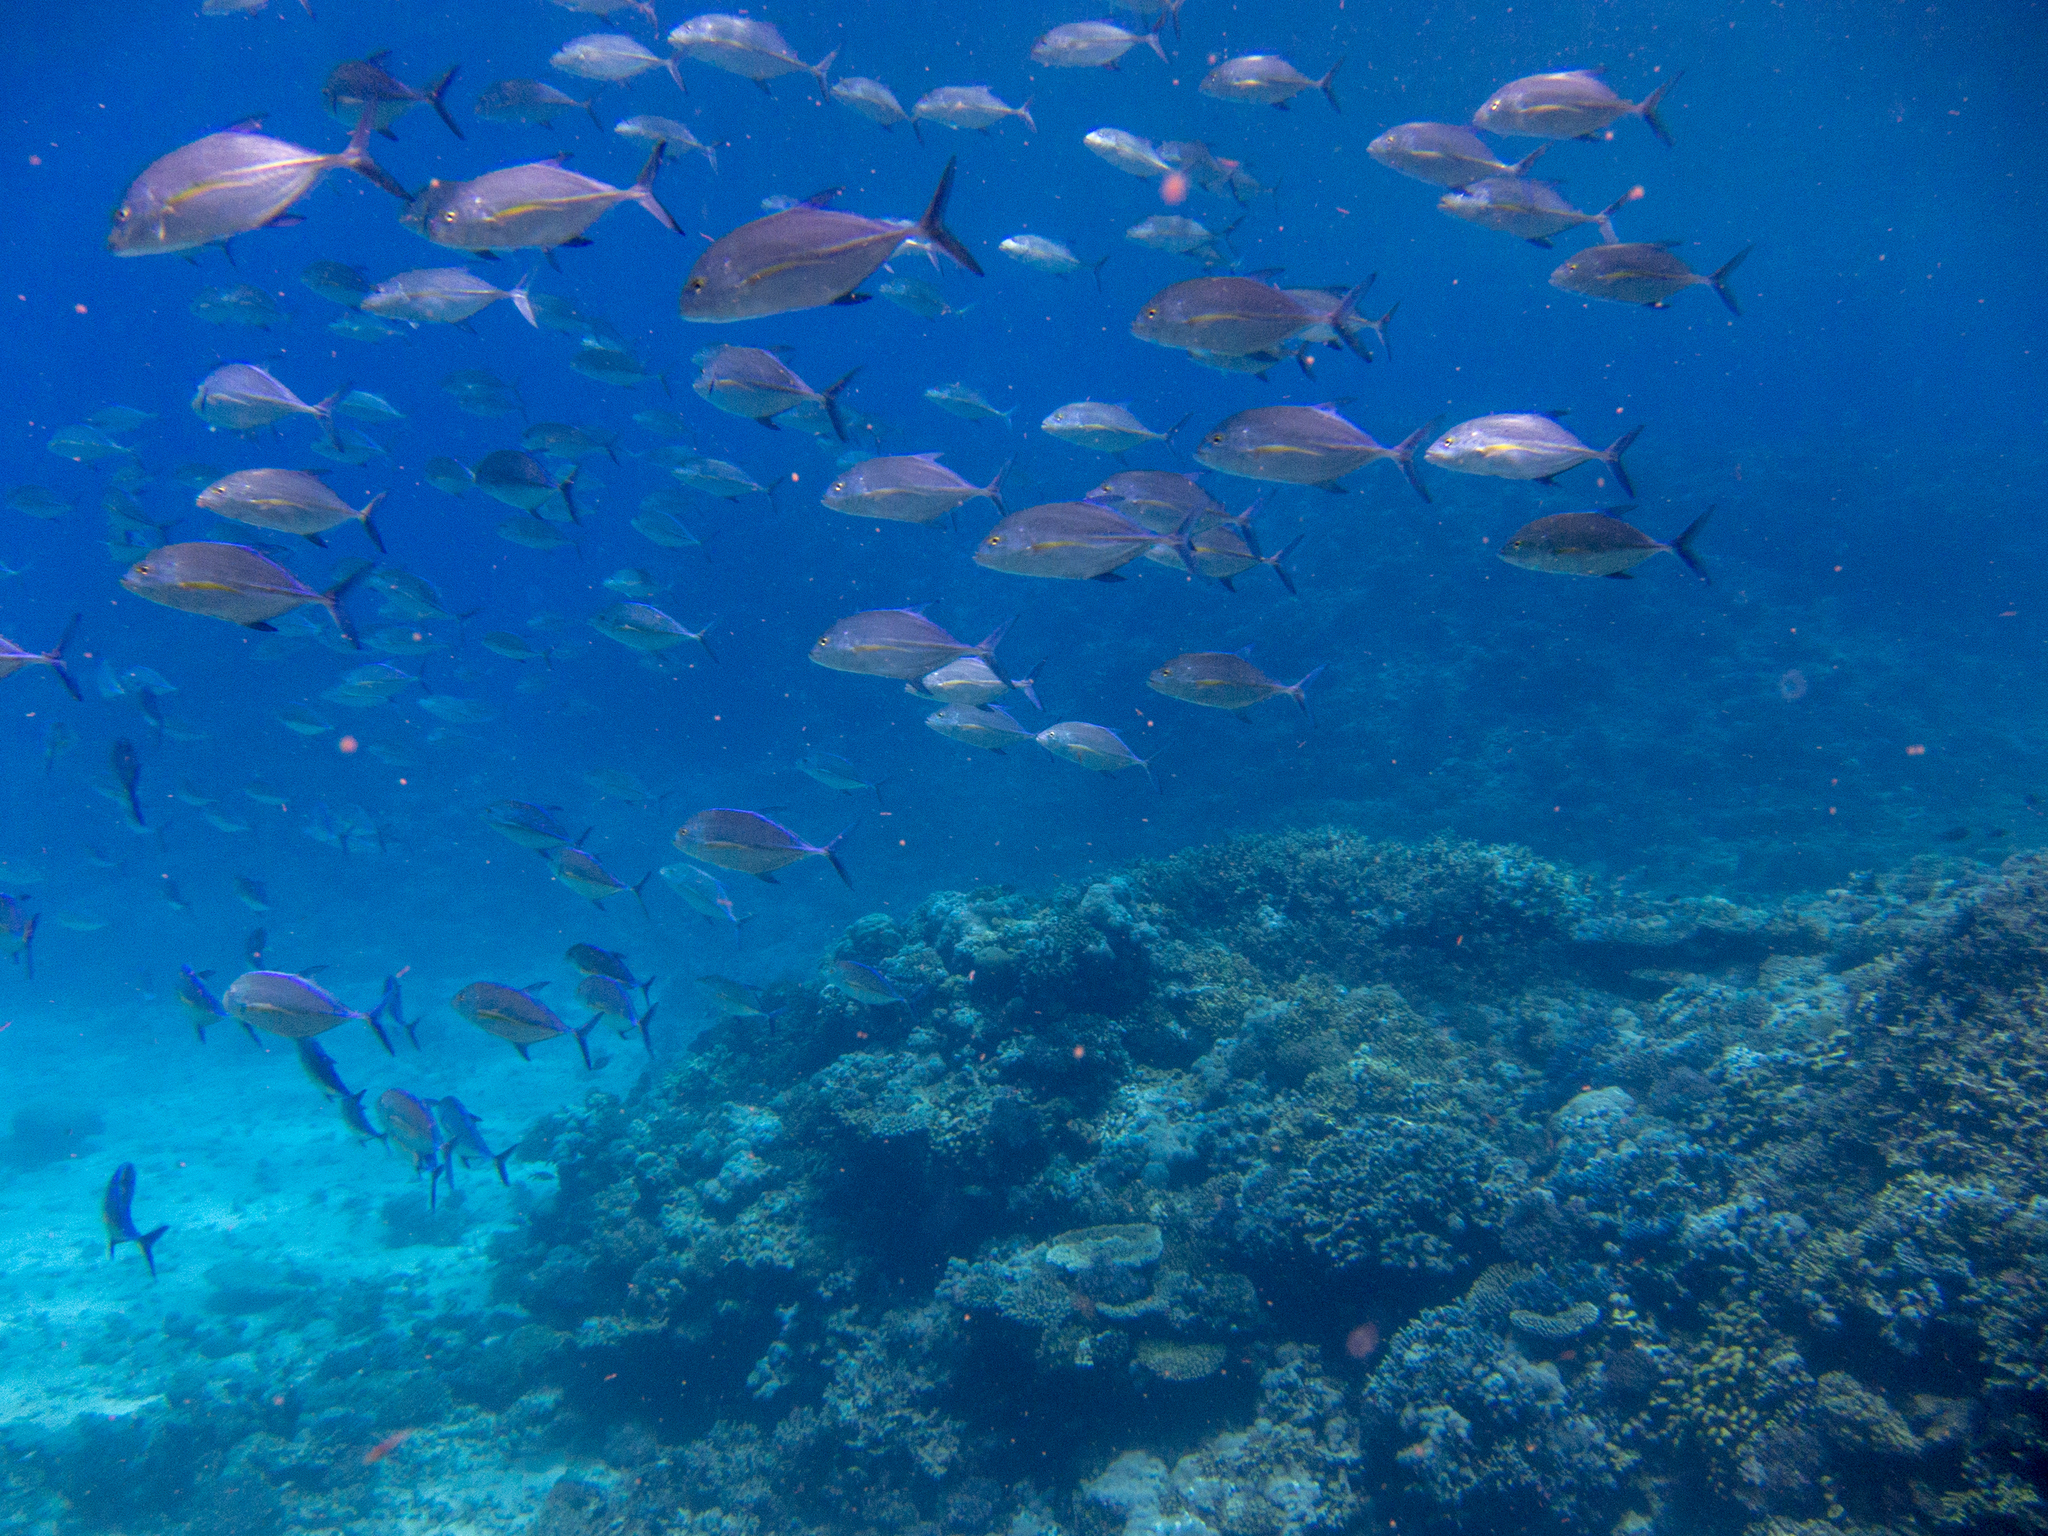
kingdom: Animalia
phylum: Chordata
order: Perciformes
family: Carangidae
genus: Caranx
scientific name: Caranx melampygus
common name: Bluefin trevally
